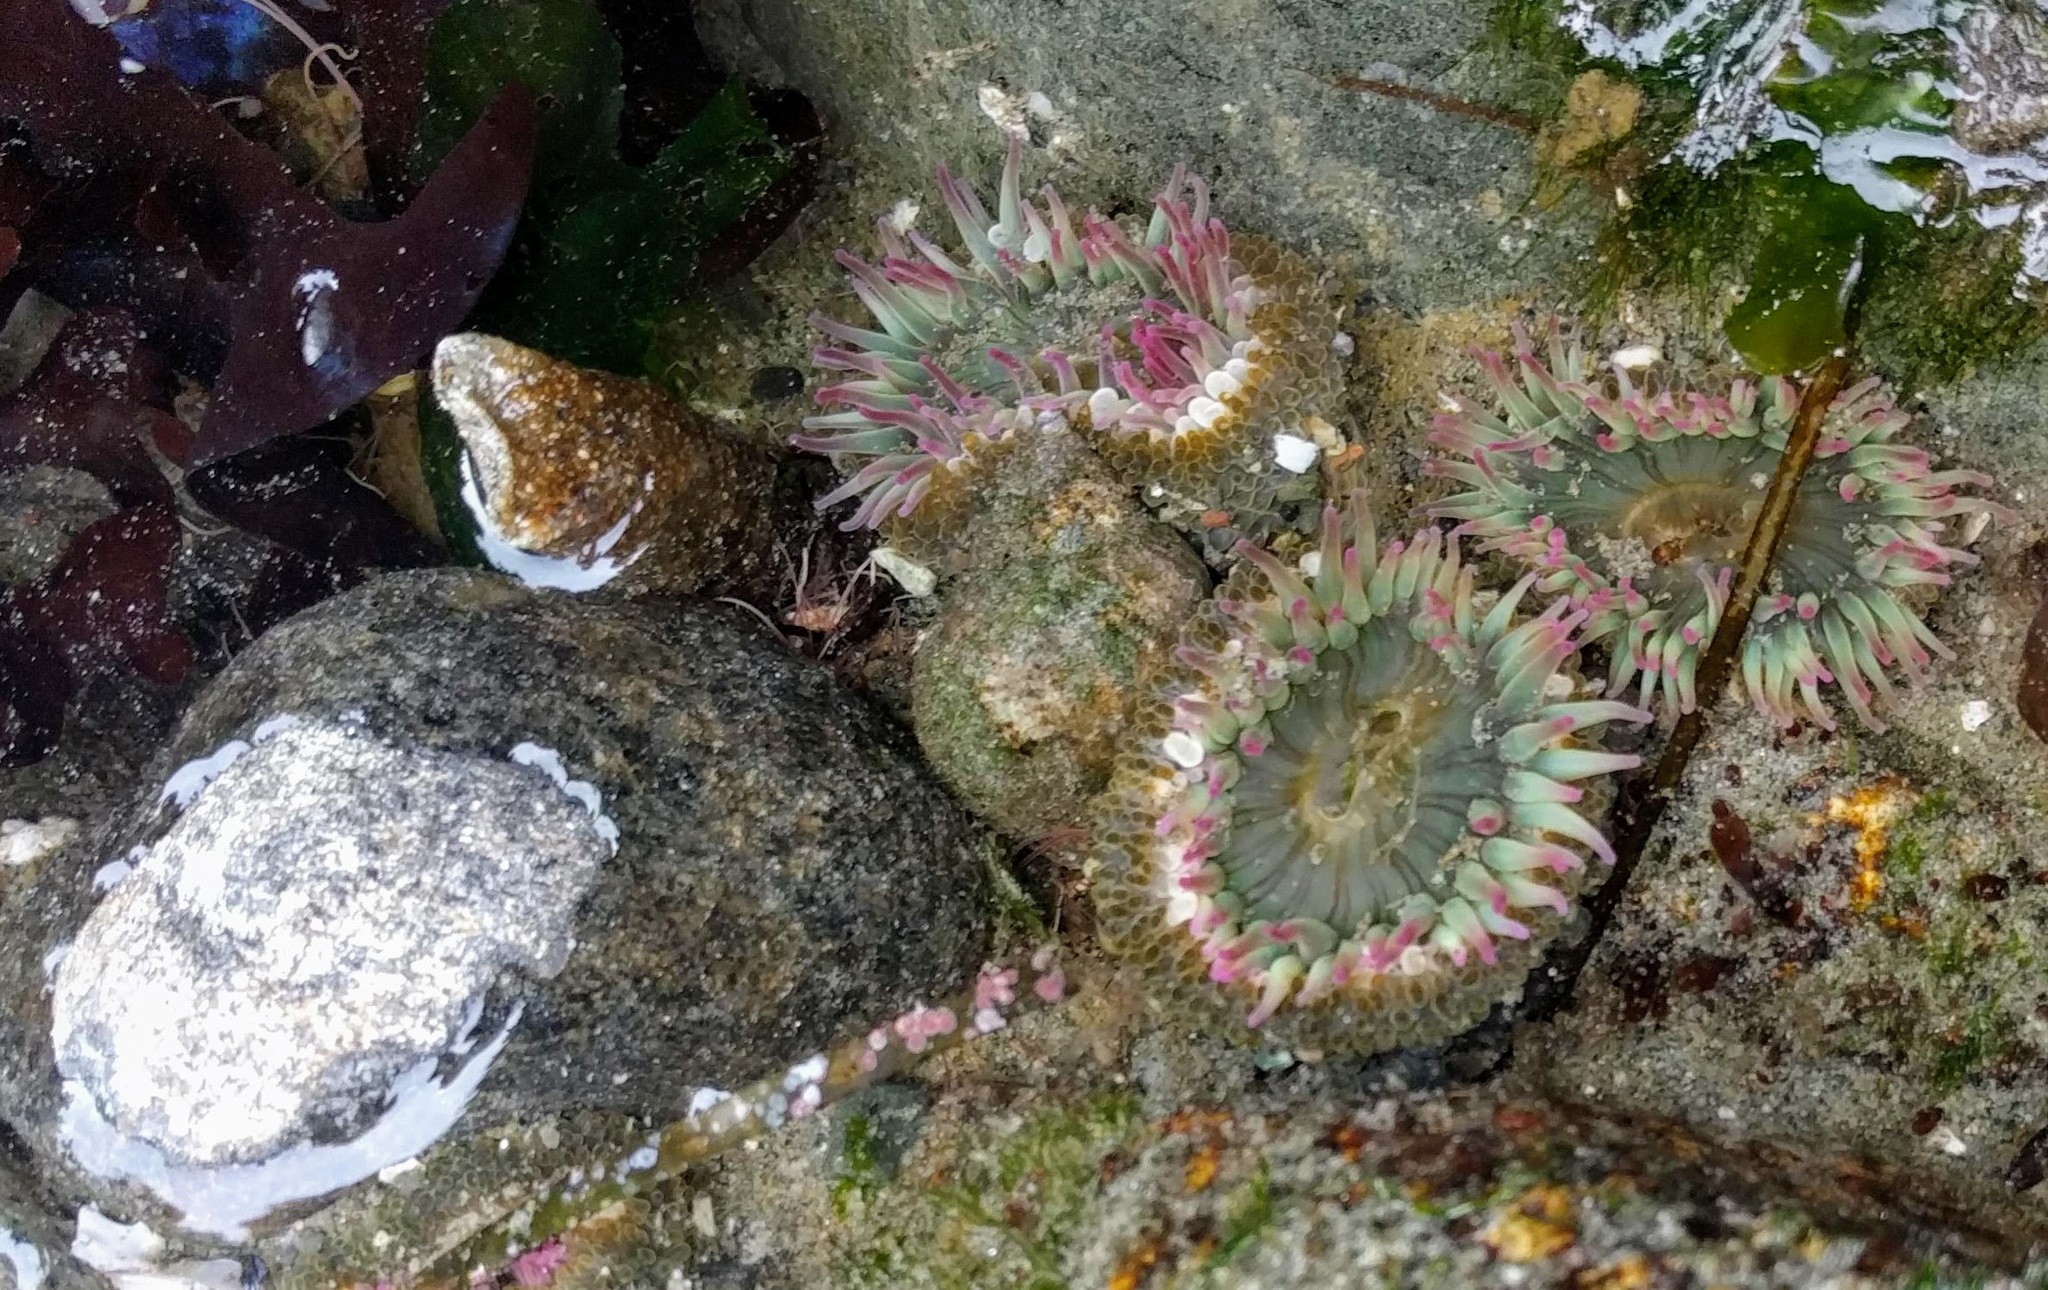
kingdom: Animalia
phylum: Cnidaria
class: Anthozoa
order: Actiniaria
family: Actiniidae
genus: Anthopleura
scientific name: Anthopleura elegantissima
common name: Clonal anemone
